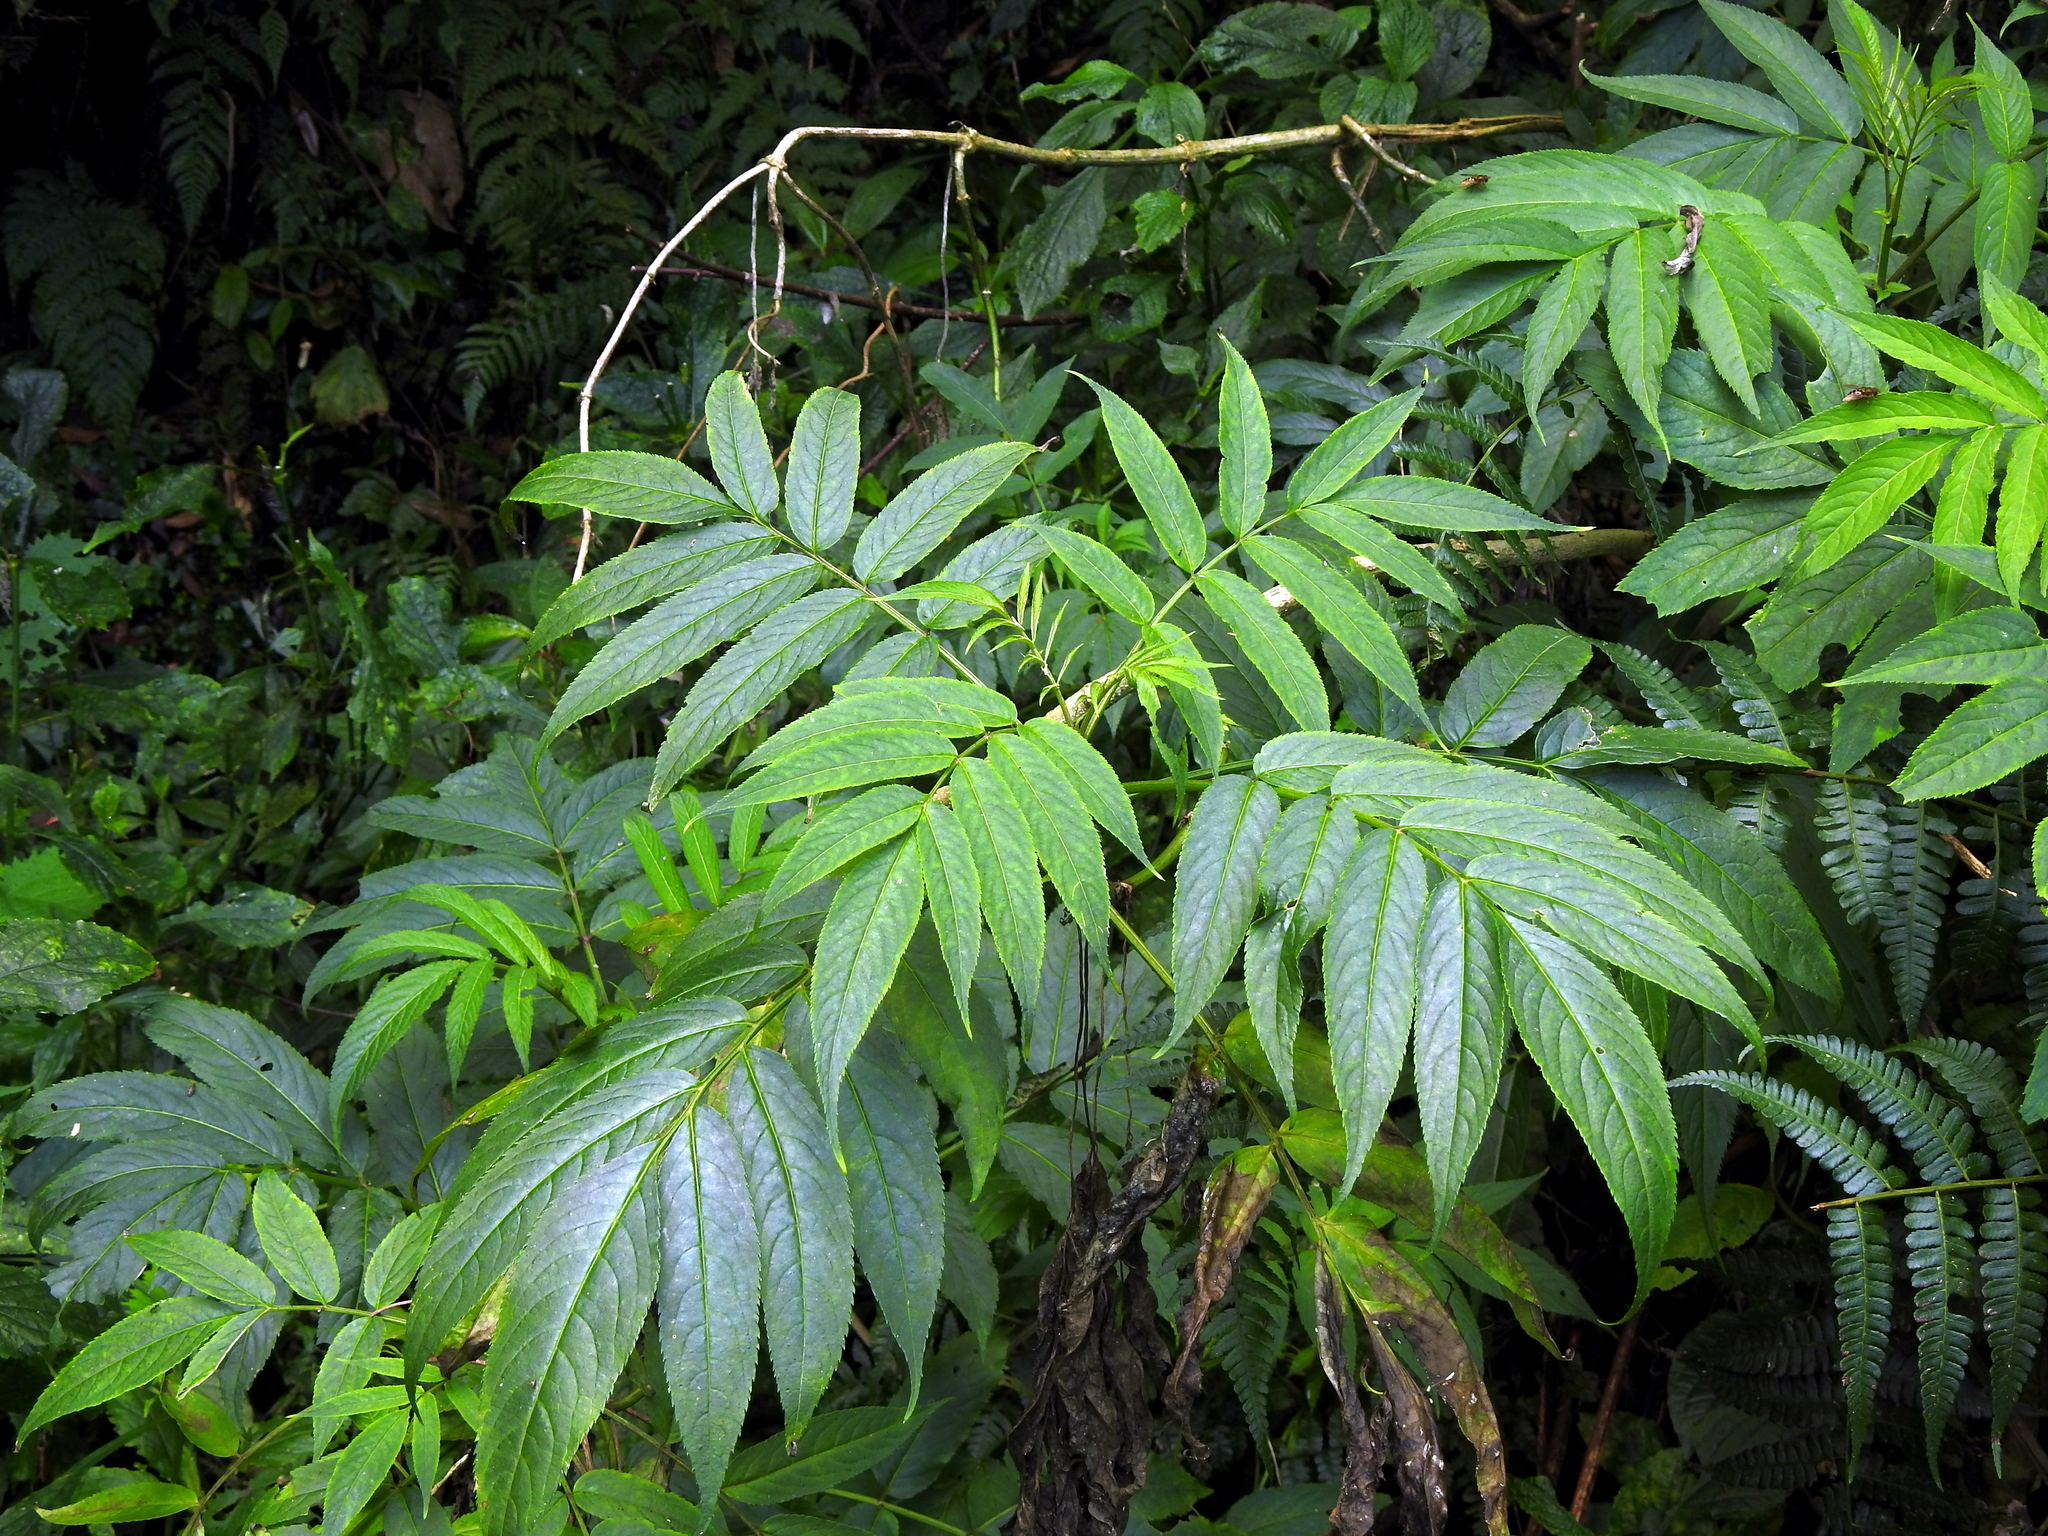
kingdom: Plantae
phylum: Tracheophyta
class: Magnoliopsida
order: Dipsacales
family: Viburnaceae
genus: Sambucus
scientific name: Sambucus javanica
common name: Chinese elder
